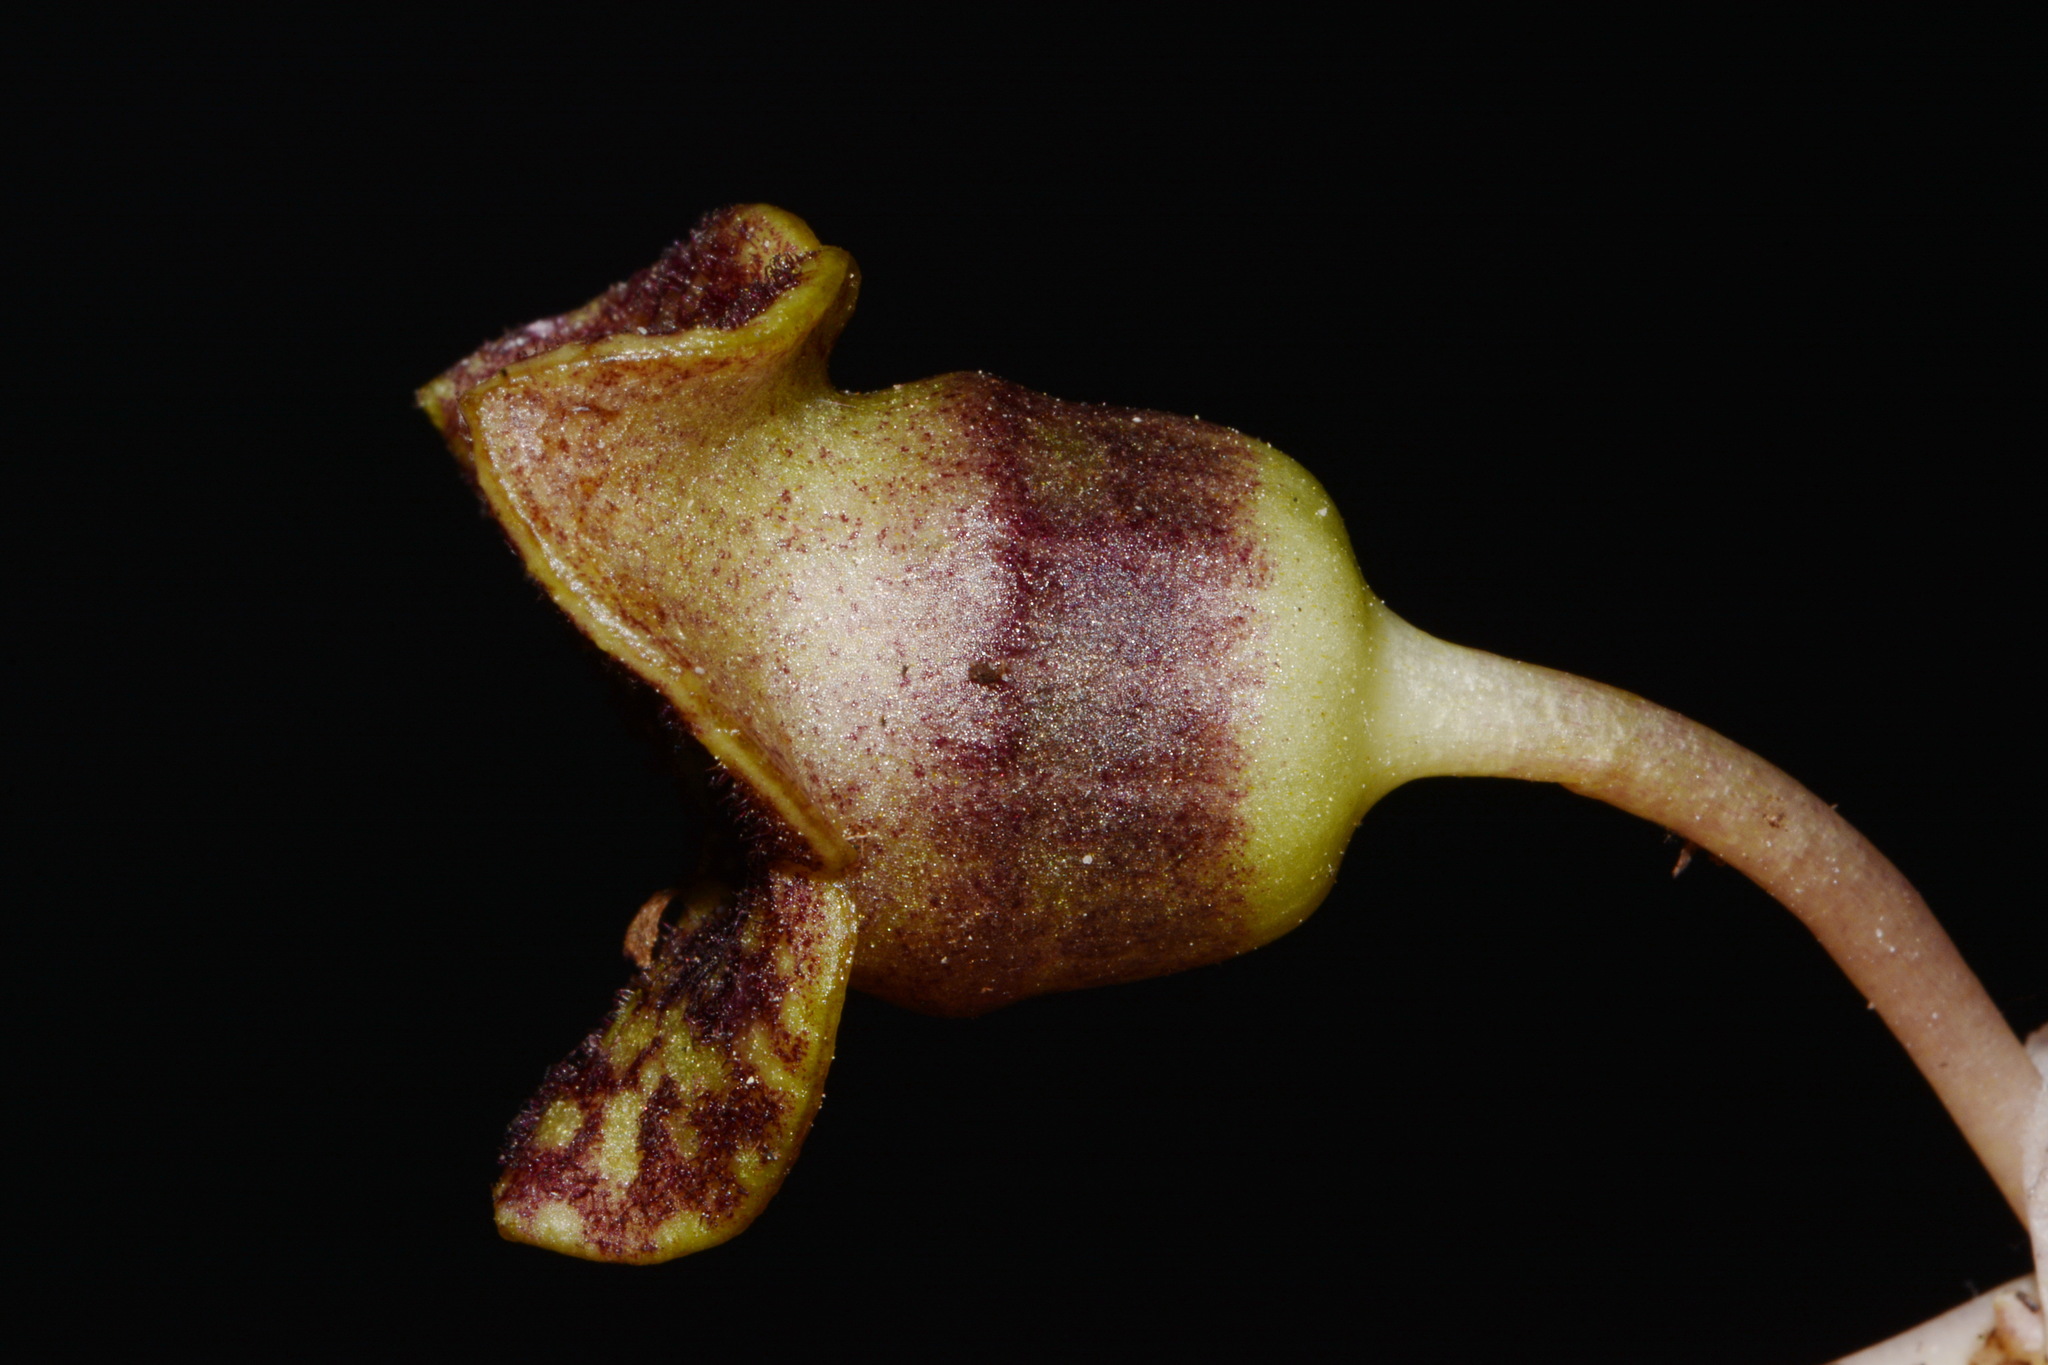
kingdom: Plantae
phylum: Tracheophyta
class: Magnoliopsida
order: Piperales
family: Aristolochiaceae
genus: Hexastylis
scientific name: Hexastylis heterophylla
